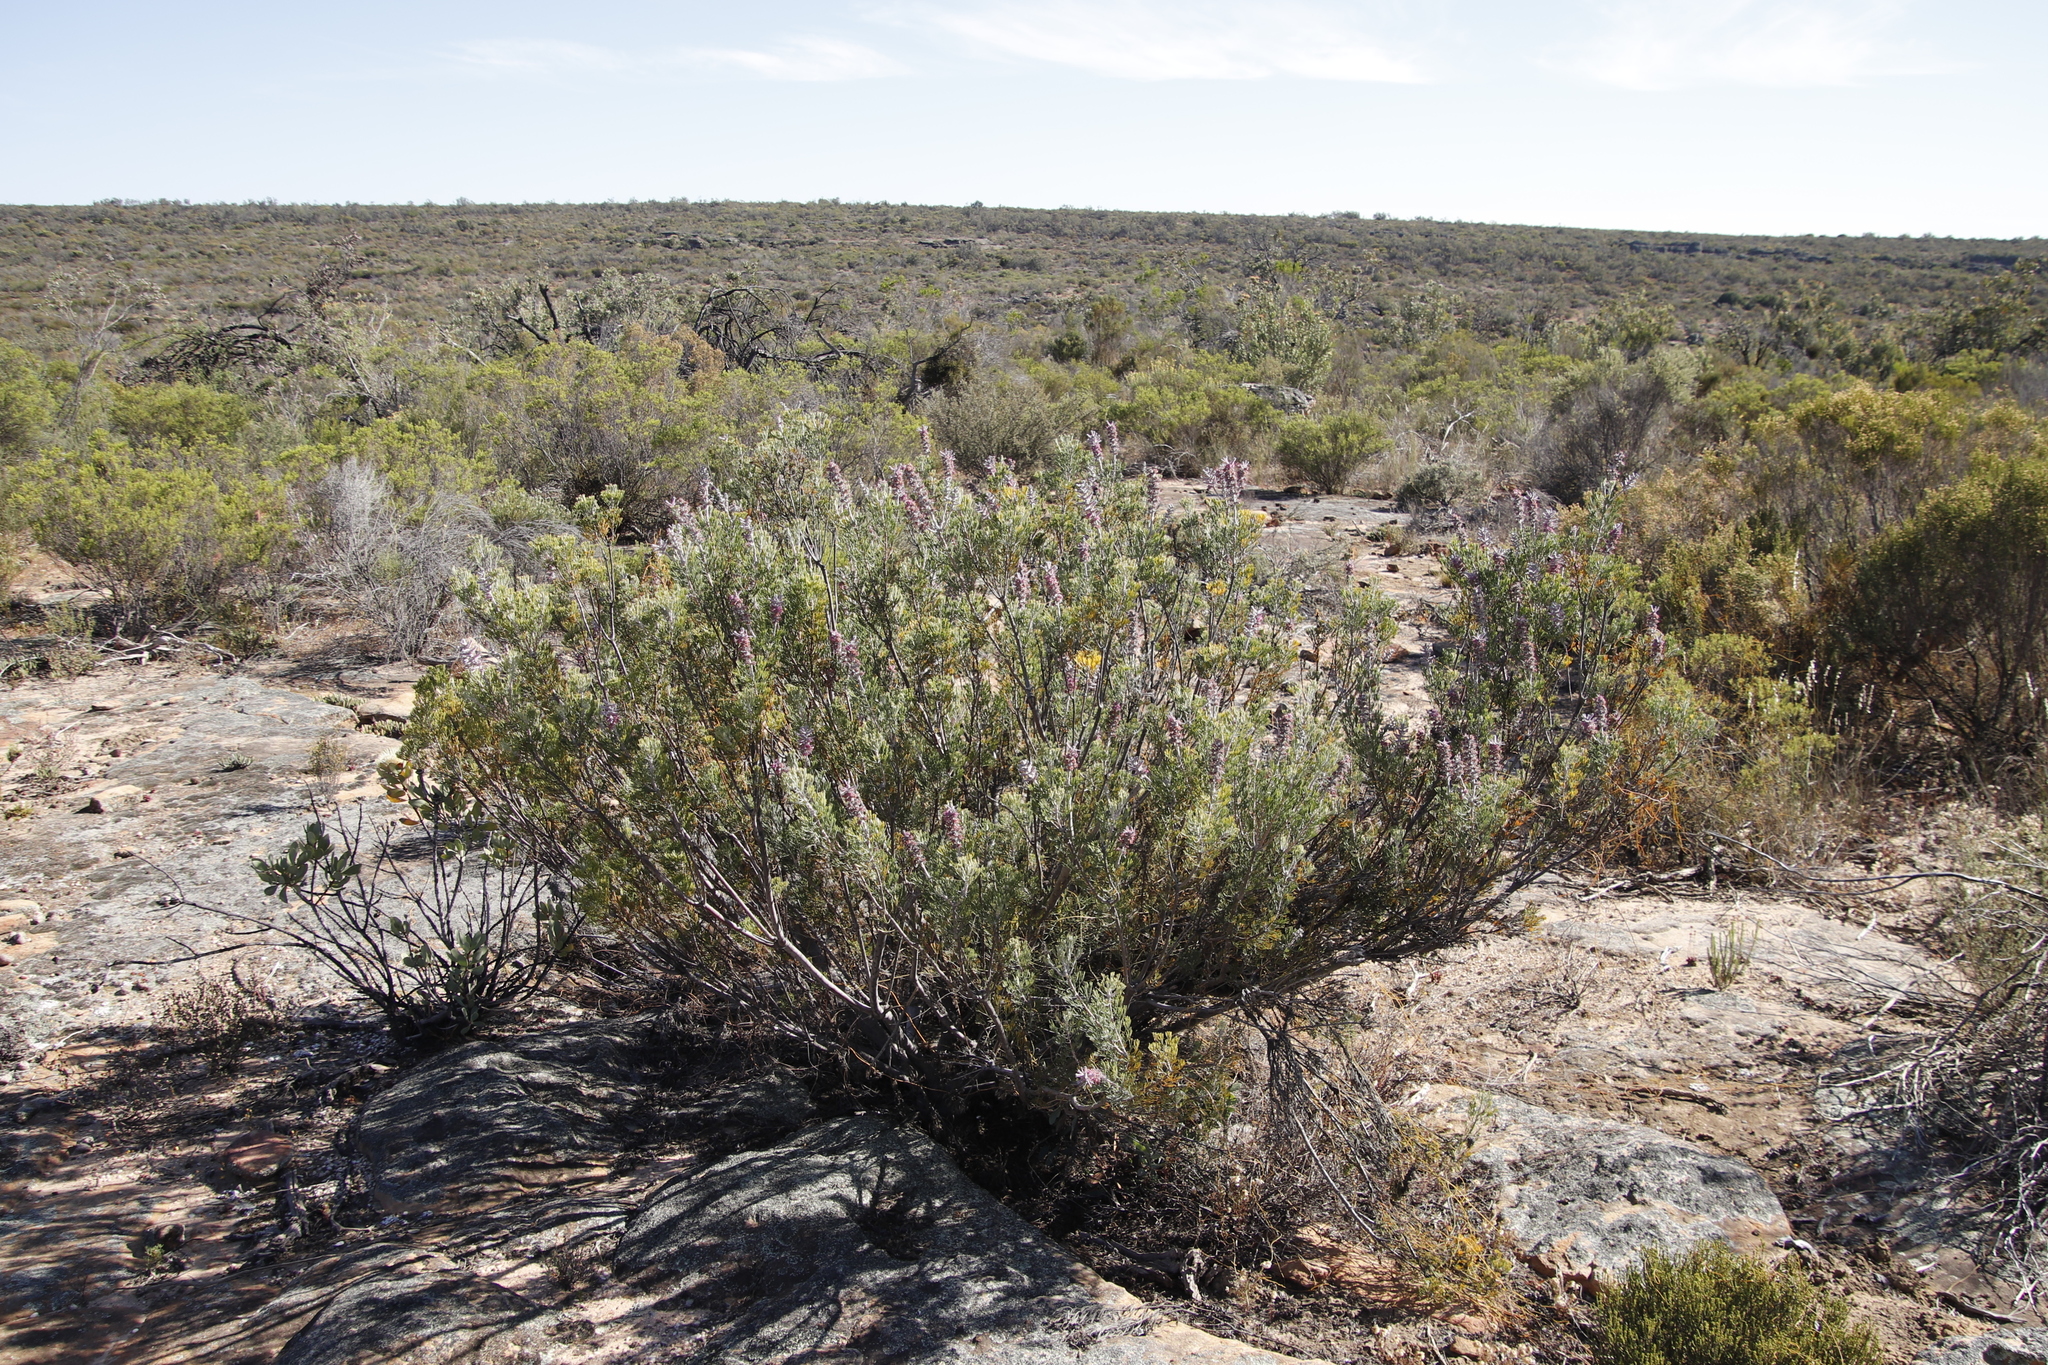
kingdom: Plantae
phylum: Tracheophyta
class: Magnoliopsida
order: Proteales
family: Proteaceae
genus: Paranomus
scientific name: Paranomus bracteolaris
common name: Bokkeveld tree sceptre
